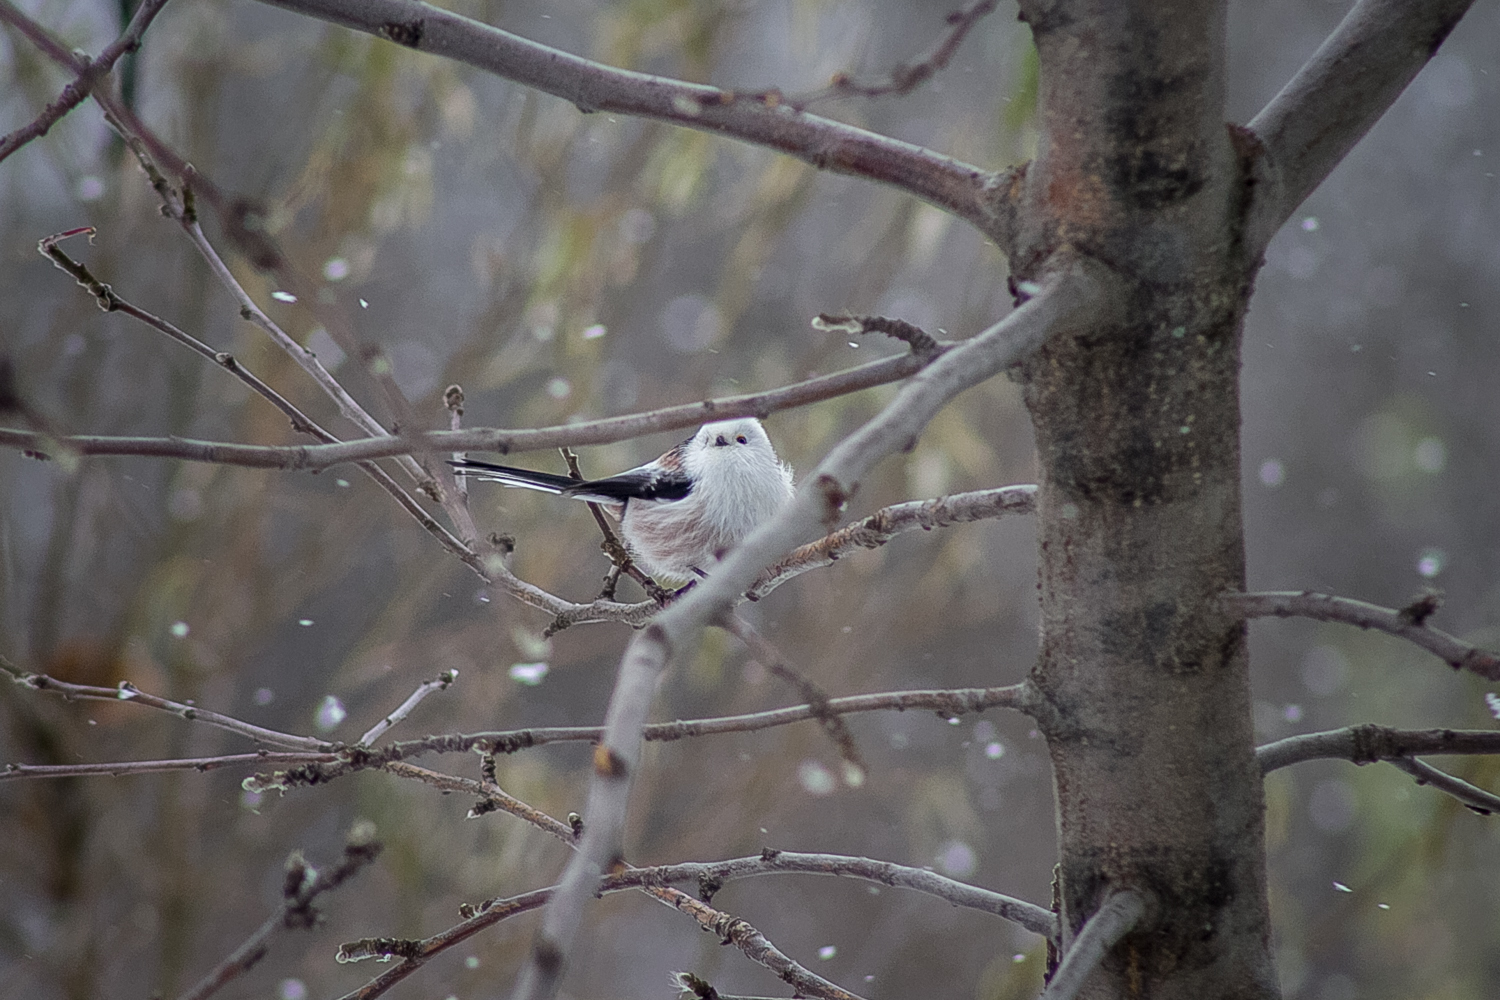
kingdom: Animalia
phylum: Chordata
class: Aves
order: Passeriformes
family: Aegithalidae
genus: Aegithalos
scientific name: Aegithalos caudatus
